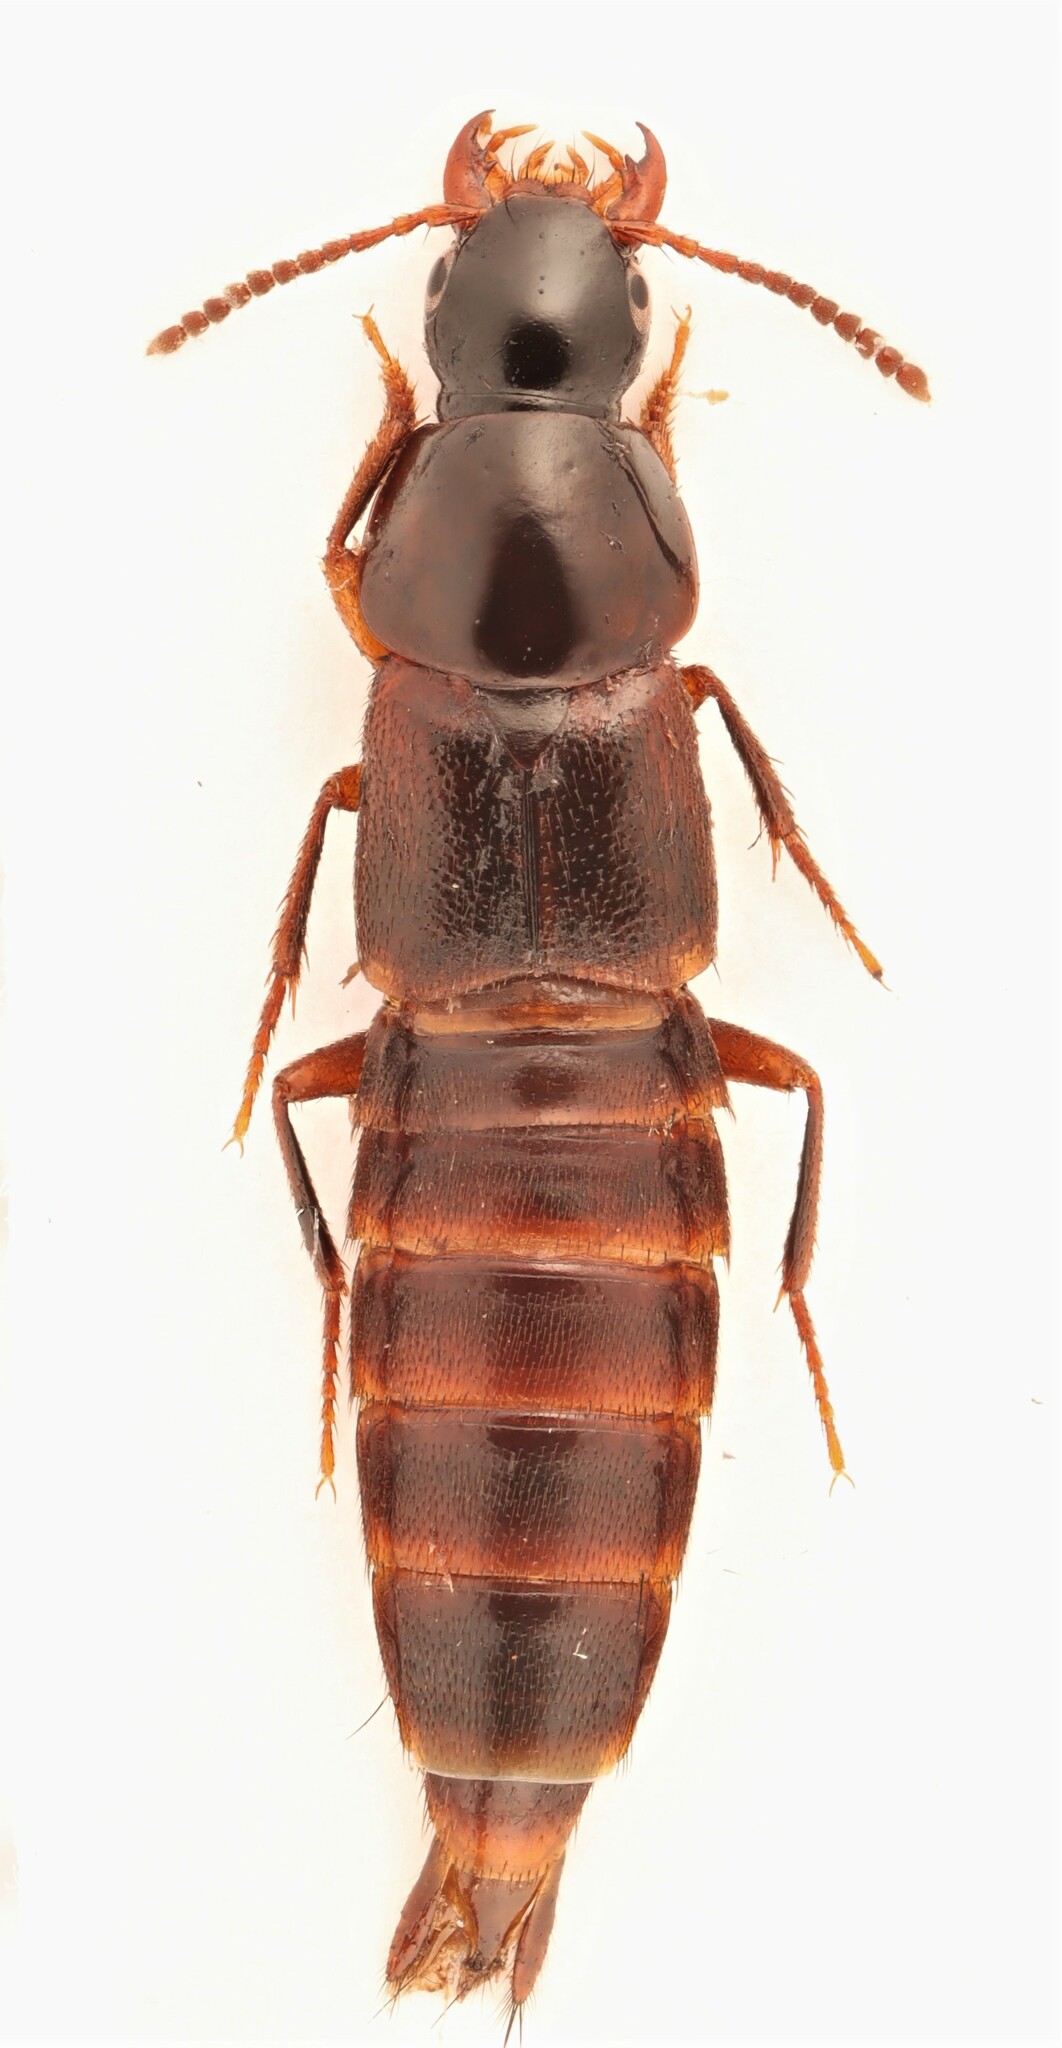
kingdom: Animalia
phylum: Arthropoda
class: Insecta
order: Coleoptera
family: Staphylinidae
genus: Quedius
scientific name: Quedius criddlei
